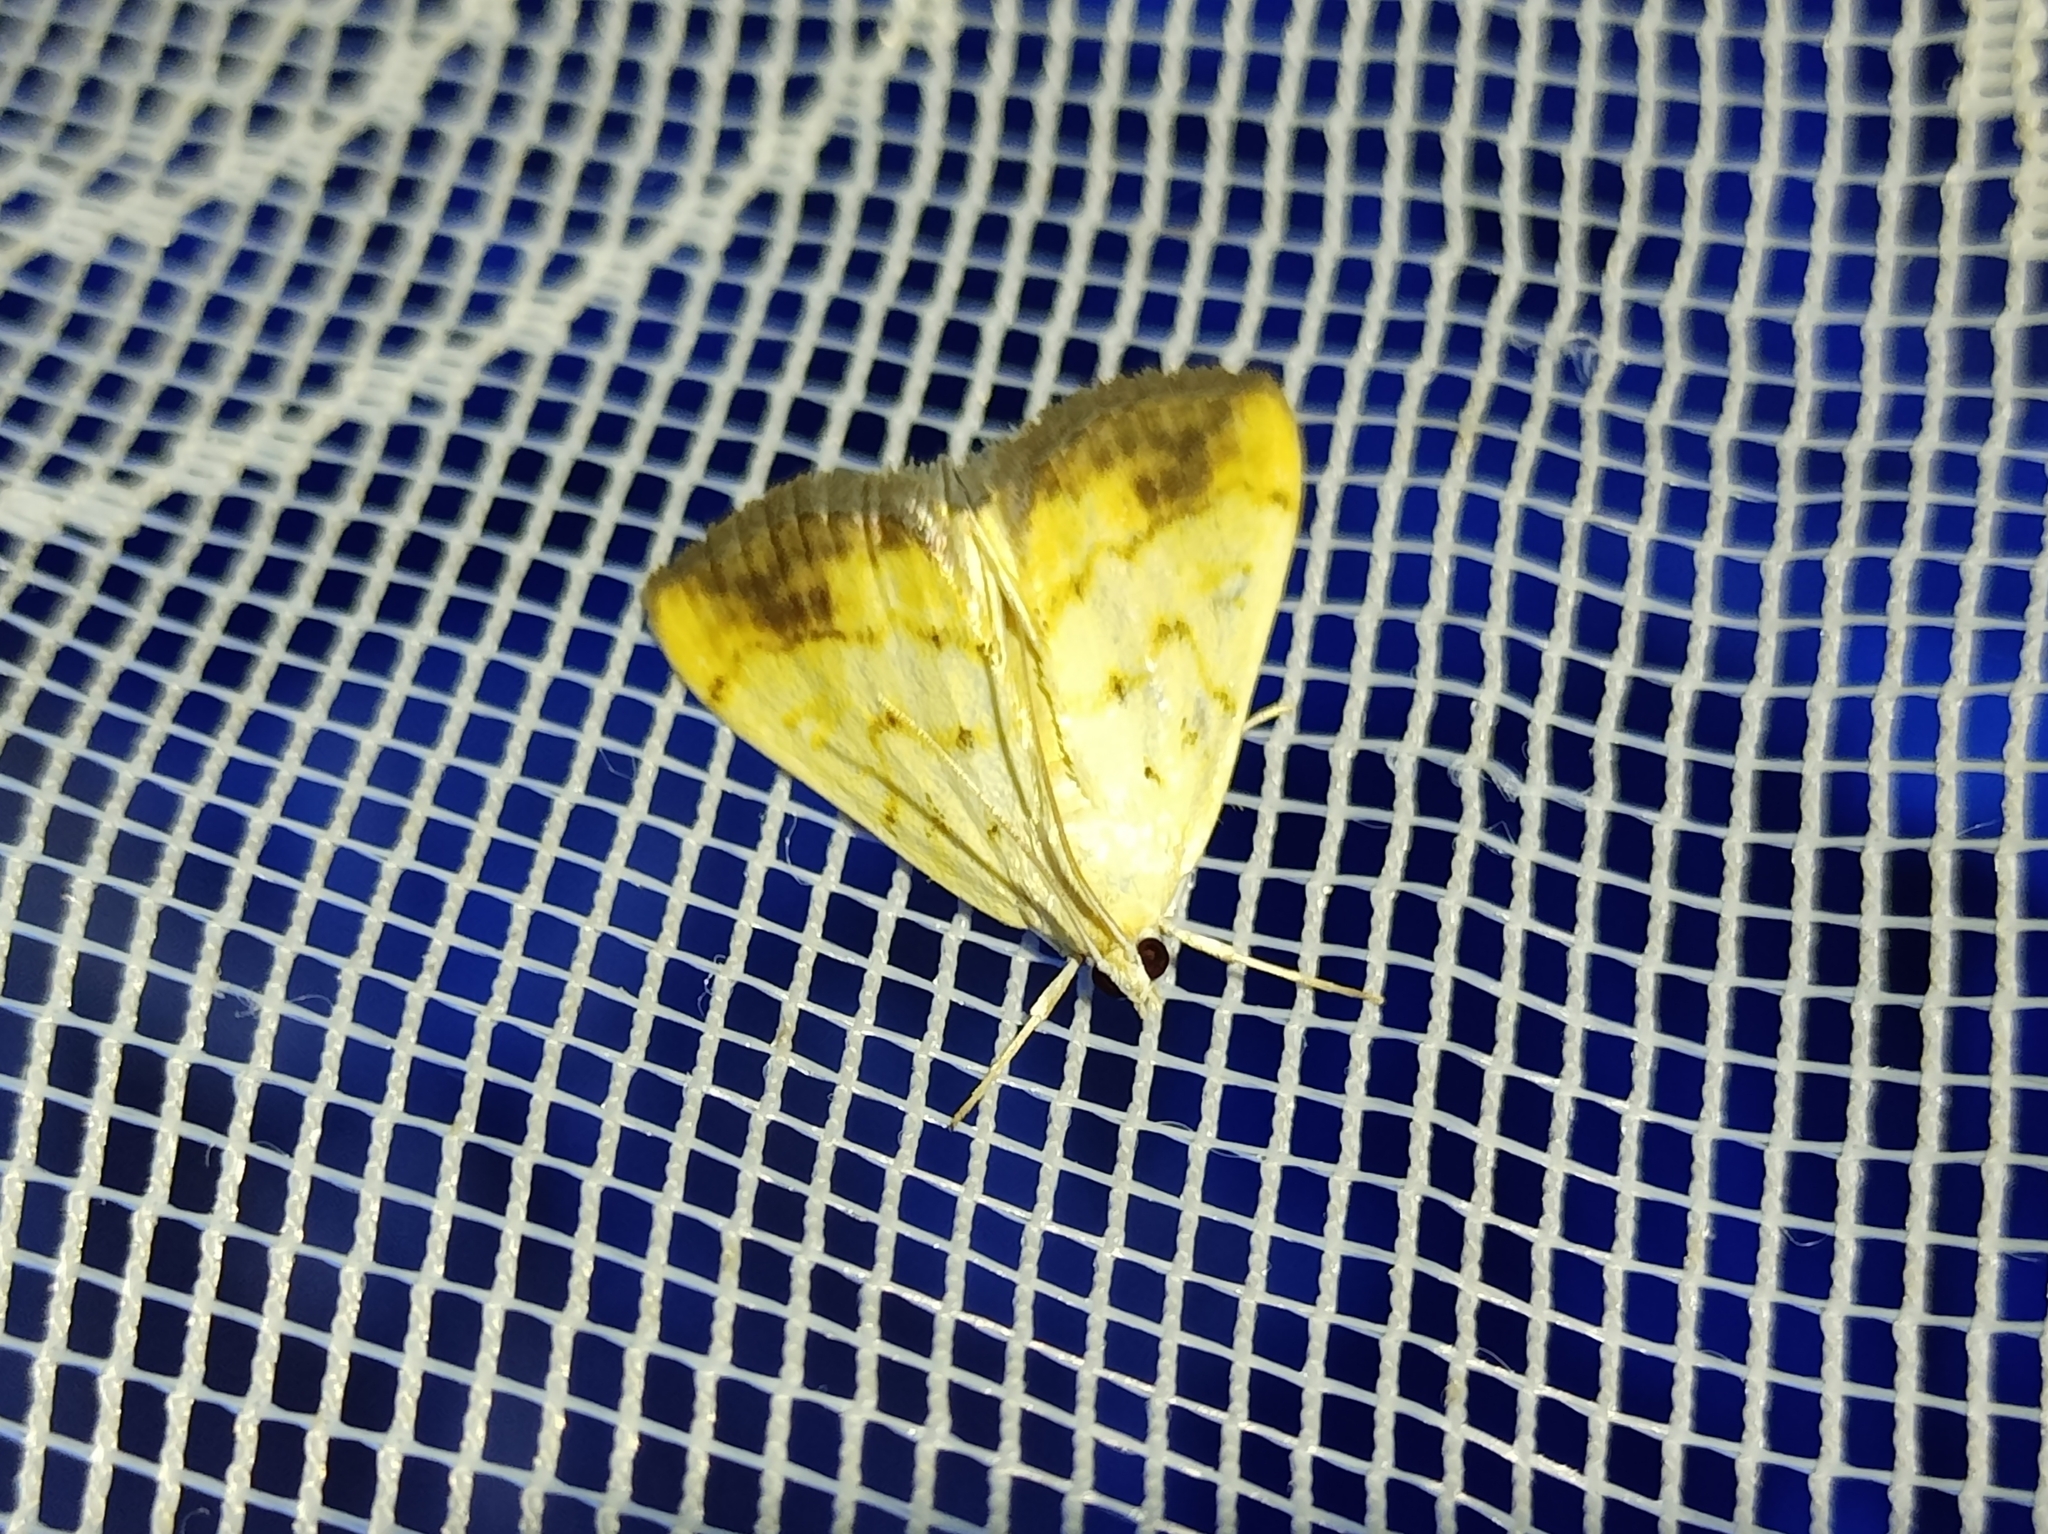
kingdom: Animalia
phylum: Arthropoda
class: Insecta
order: Lepidoptera
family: Crambidae
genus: Evergestis
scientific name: Evergestis extimalis
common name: Marbled yellow pearl
